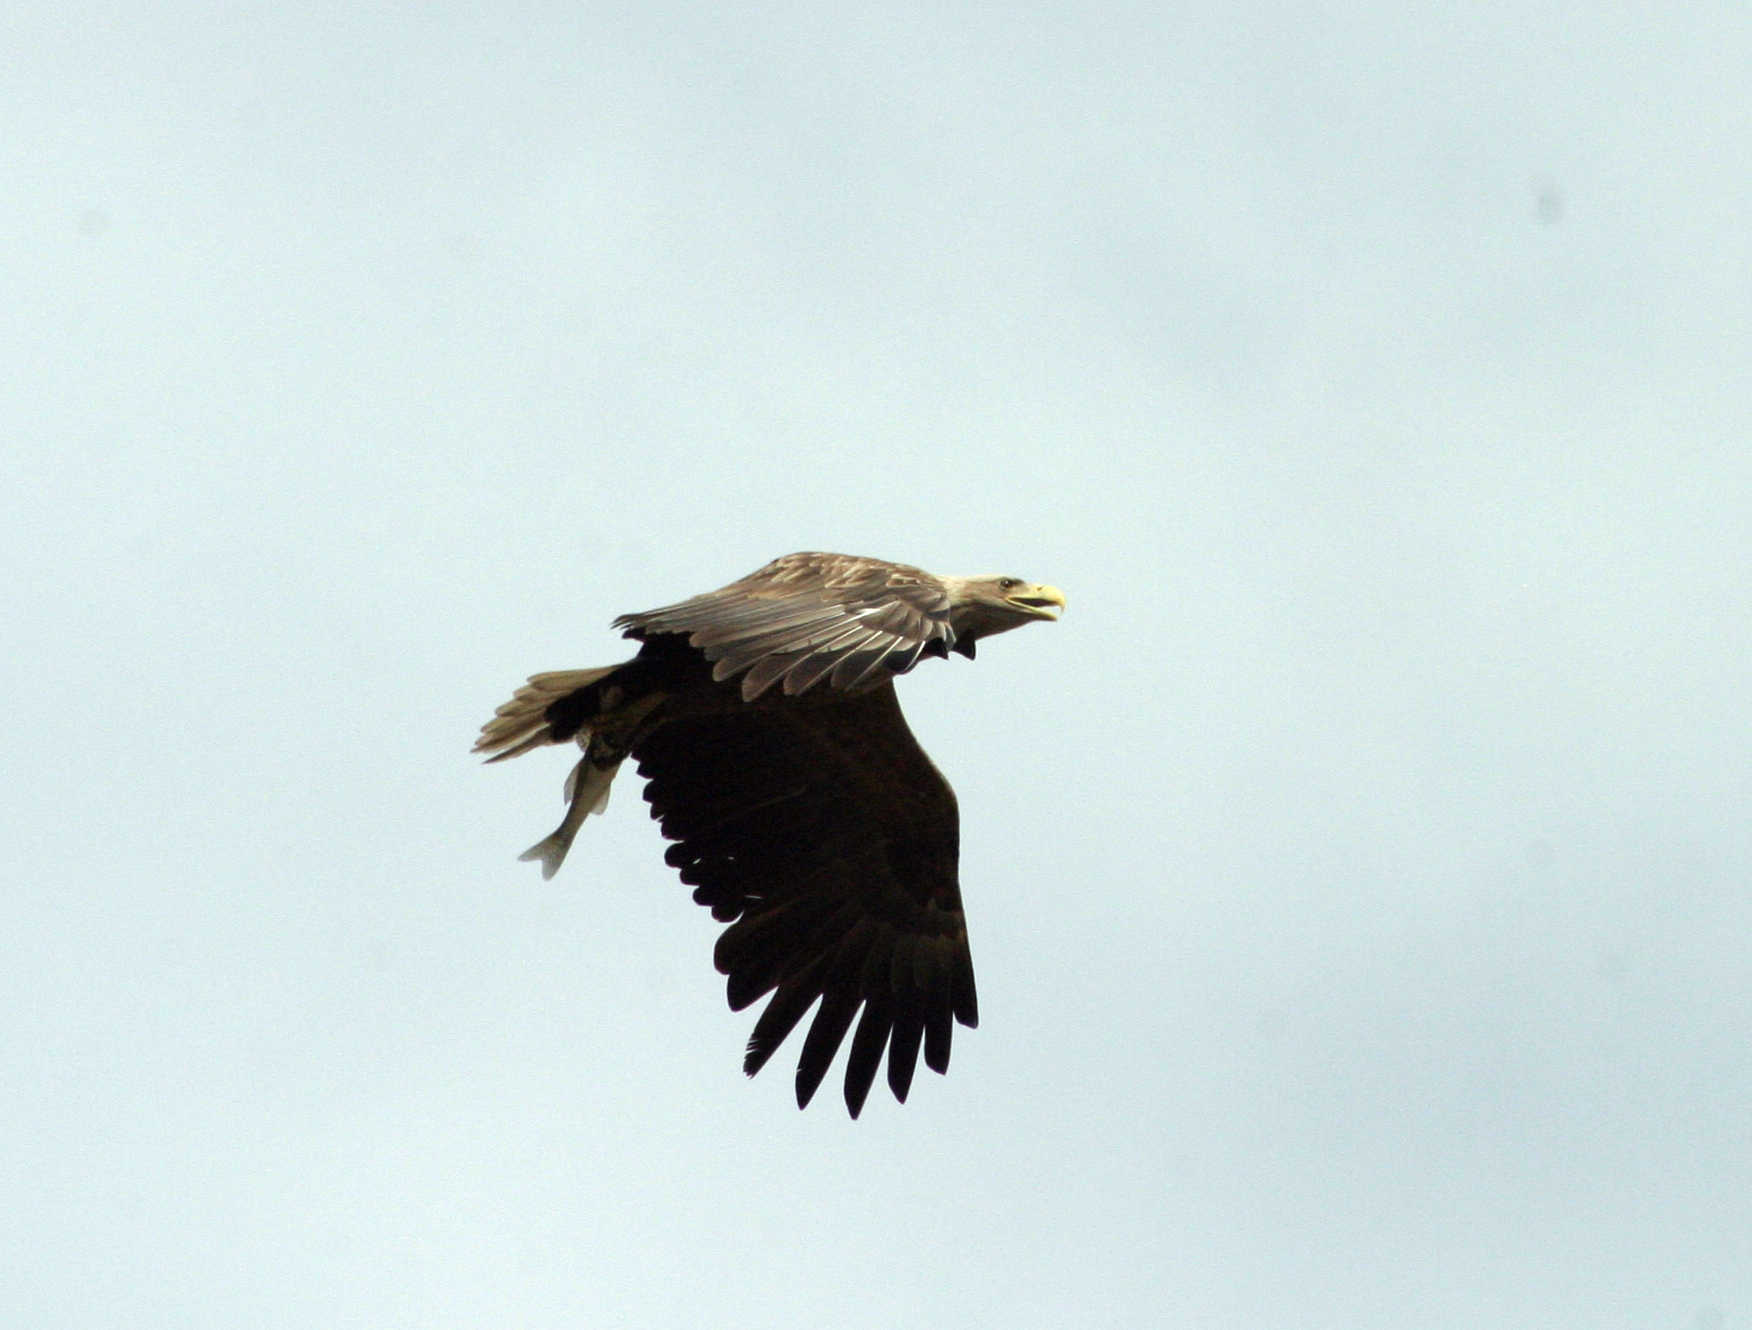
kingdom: Animalia
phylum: Chordata
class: Aves
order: Accipitriformes
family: Accipitridae
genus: Haliaeetus
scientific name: Haliaeetus albicilla
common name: White-tailed eagle
